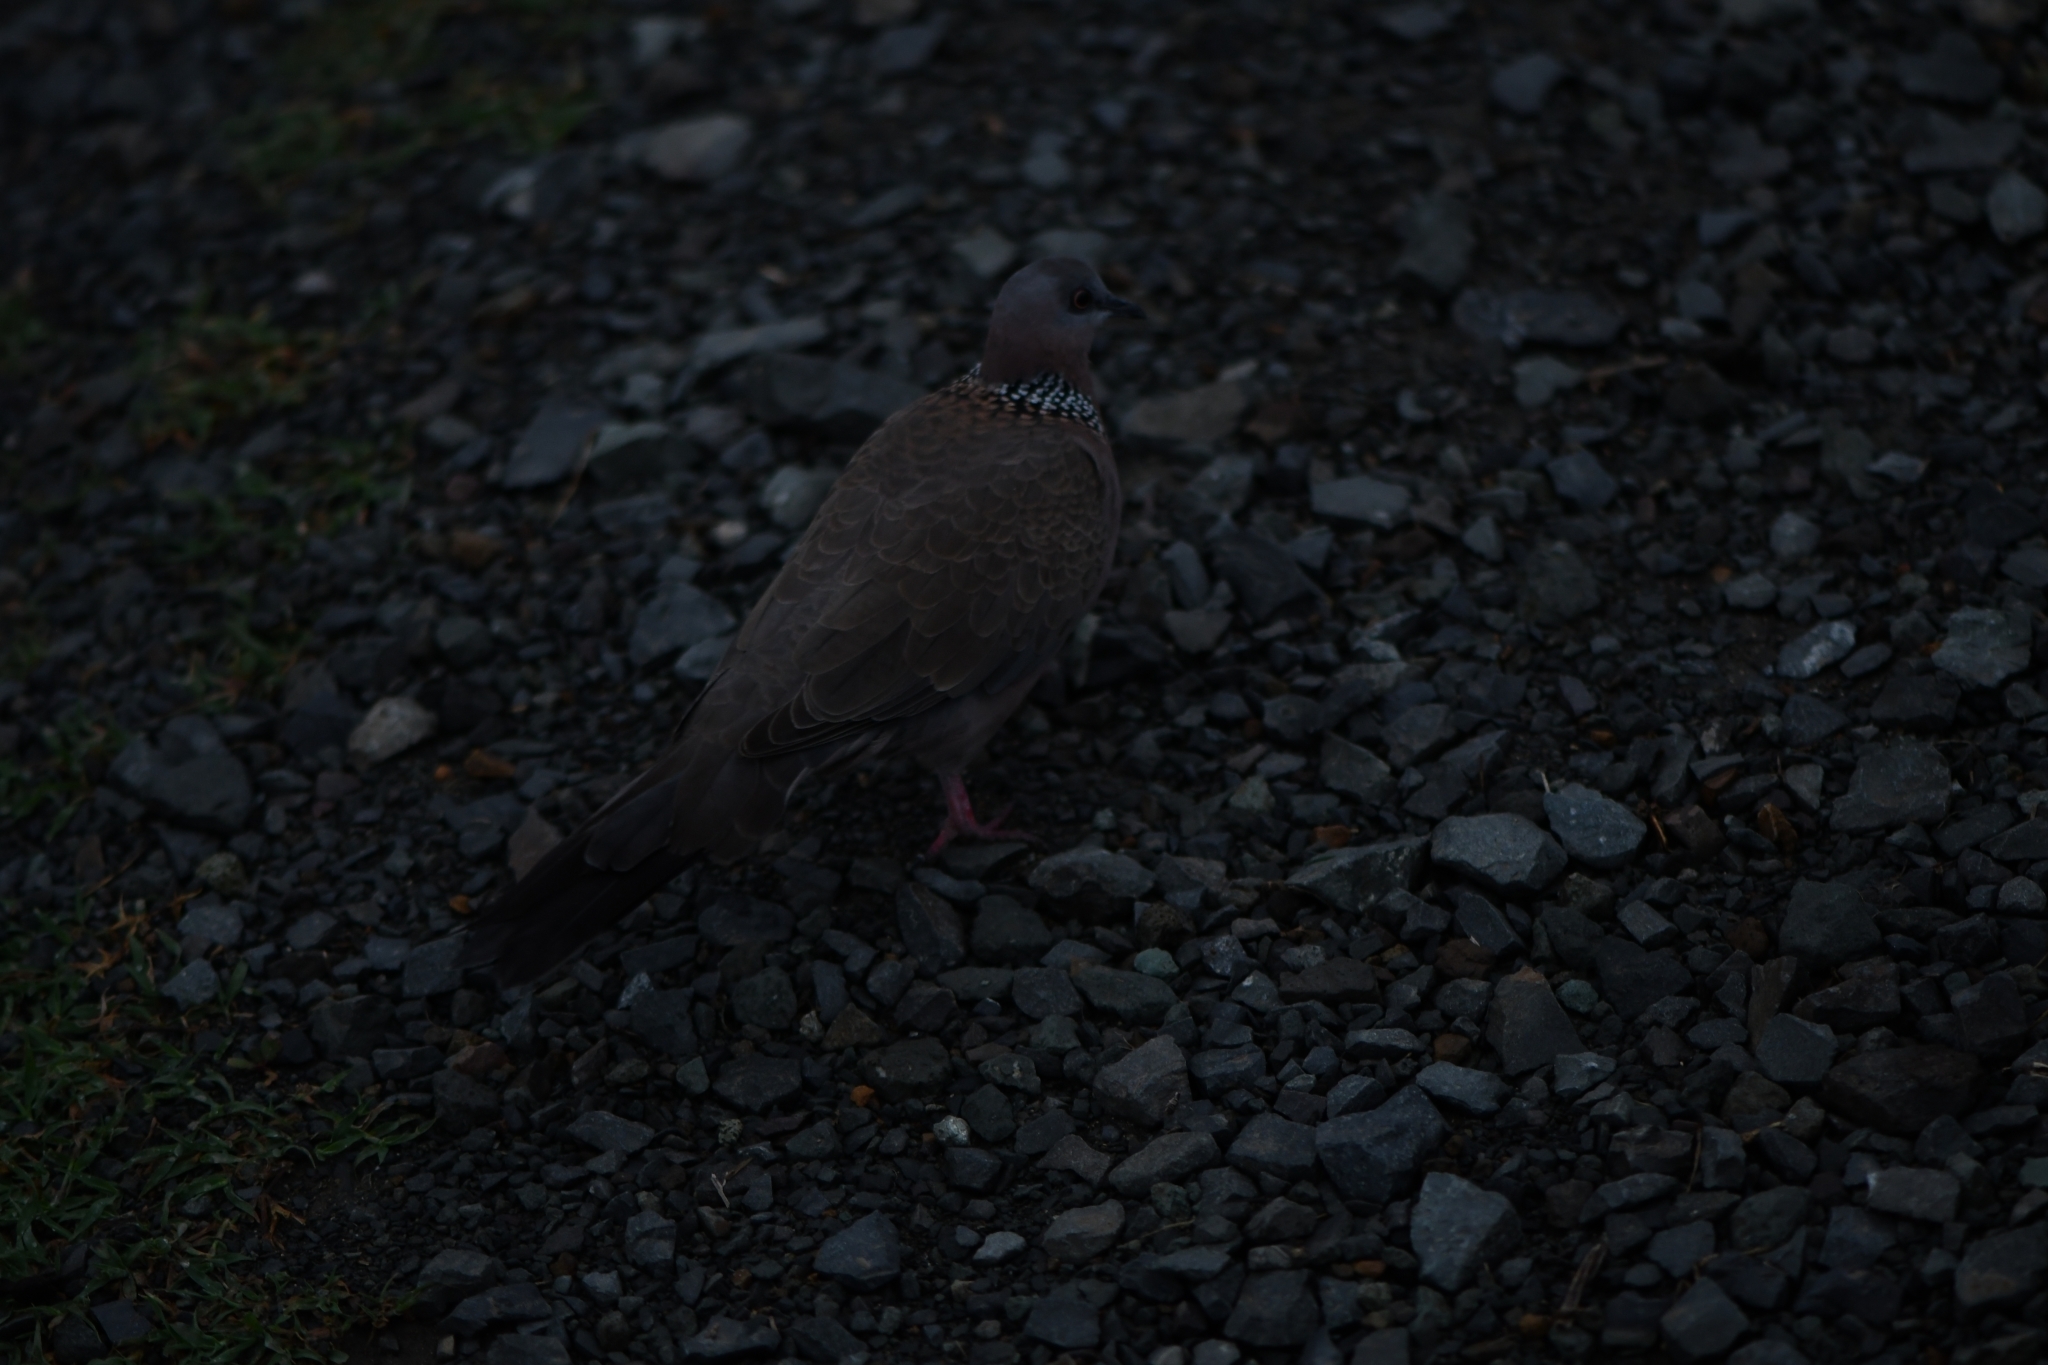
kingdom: Animalia
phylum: Chordata
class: Aves
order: Columbiformes
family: Columbidae
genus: Spilopelia
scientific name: Spilopelia chinensis
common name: Spotted dove
